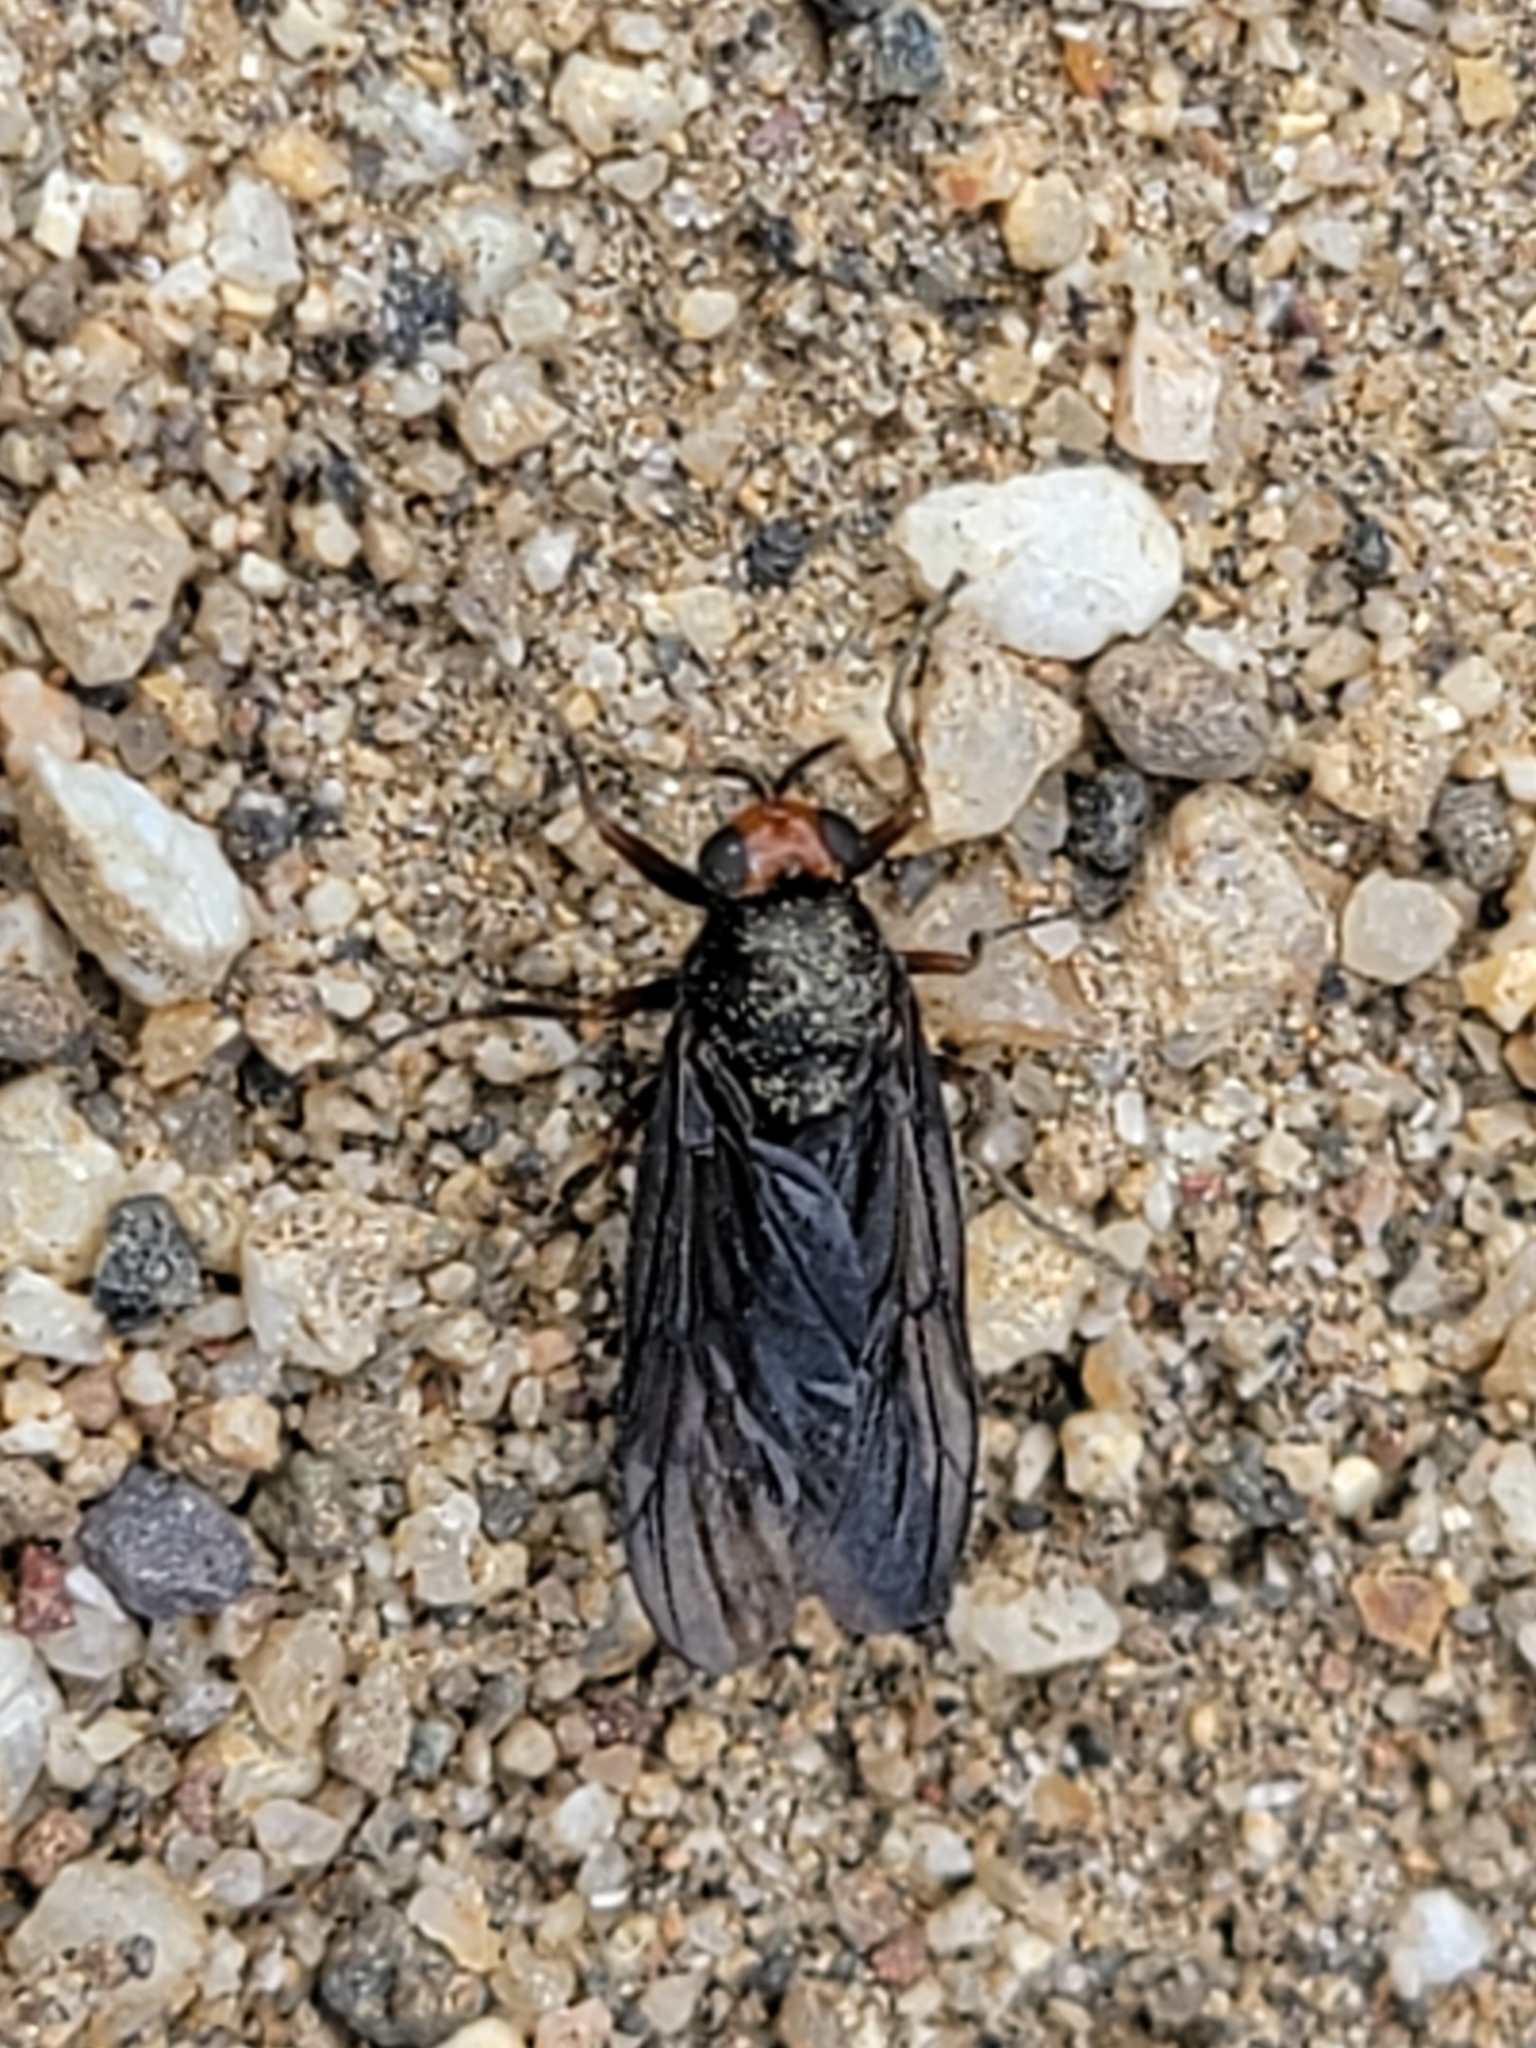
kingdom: Animalia
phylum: Arthropoda
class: Insecta
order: Diptera
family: Stratiomyidae
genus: Inopus
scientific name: Inopus rubriceps
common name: Soldier fly
